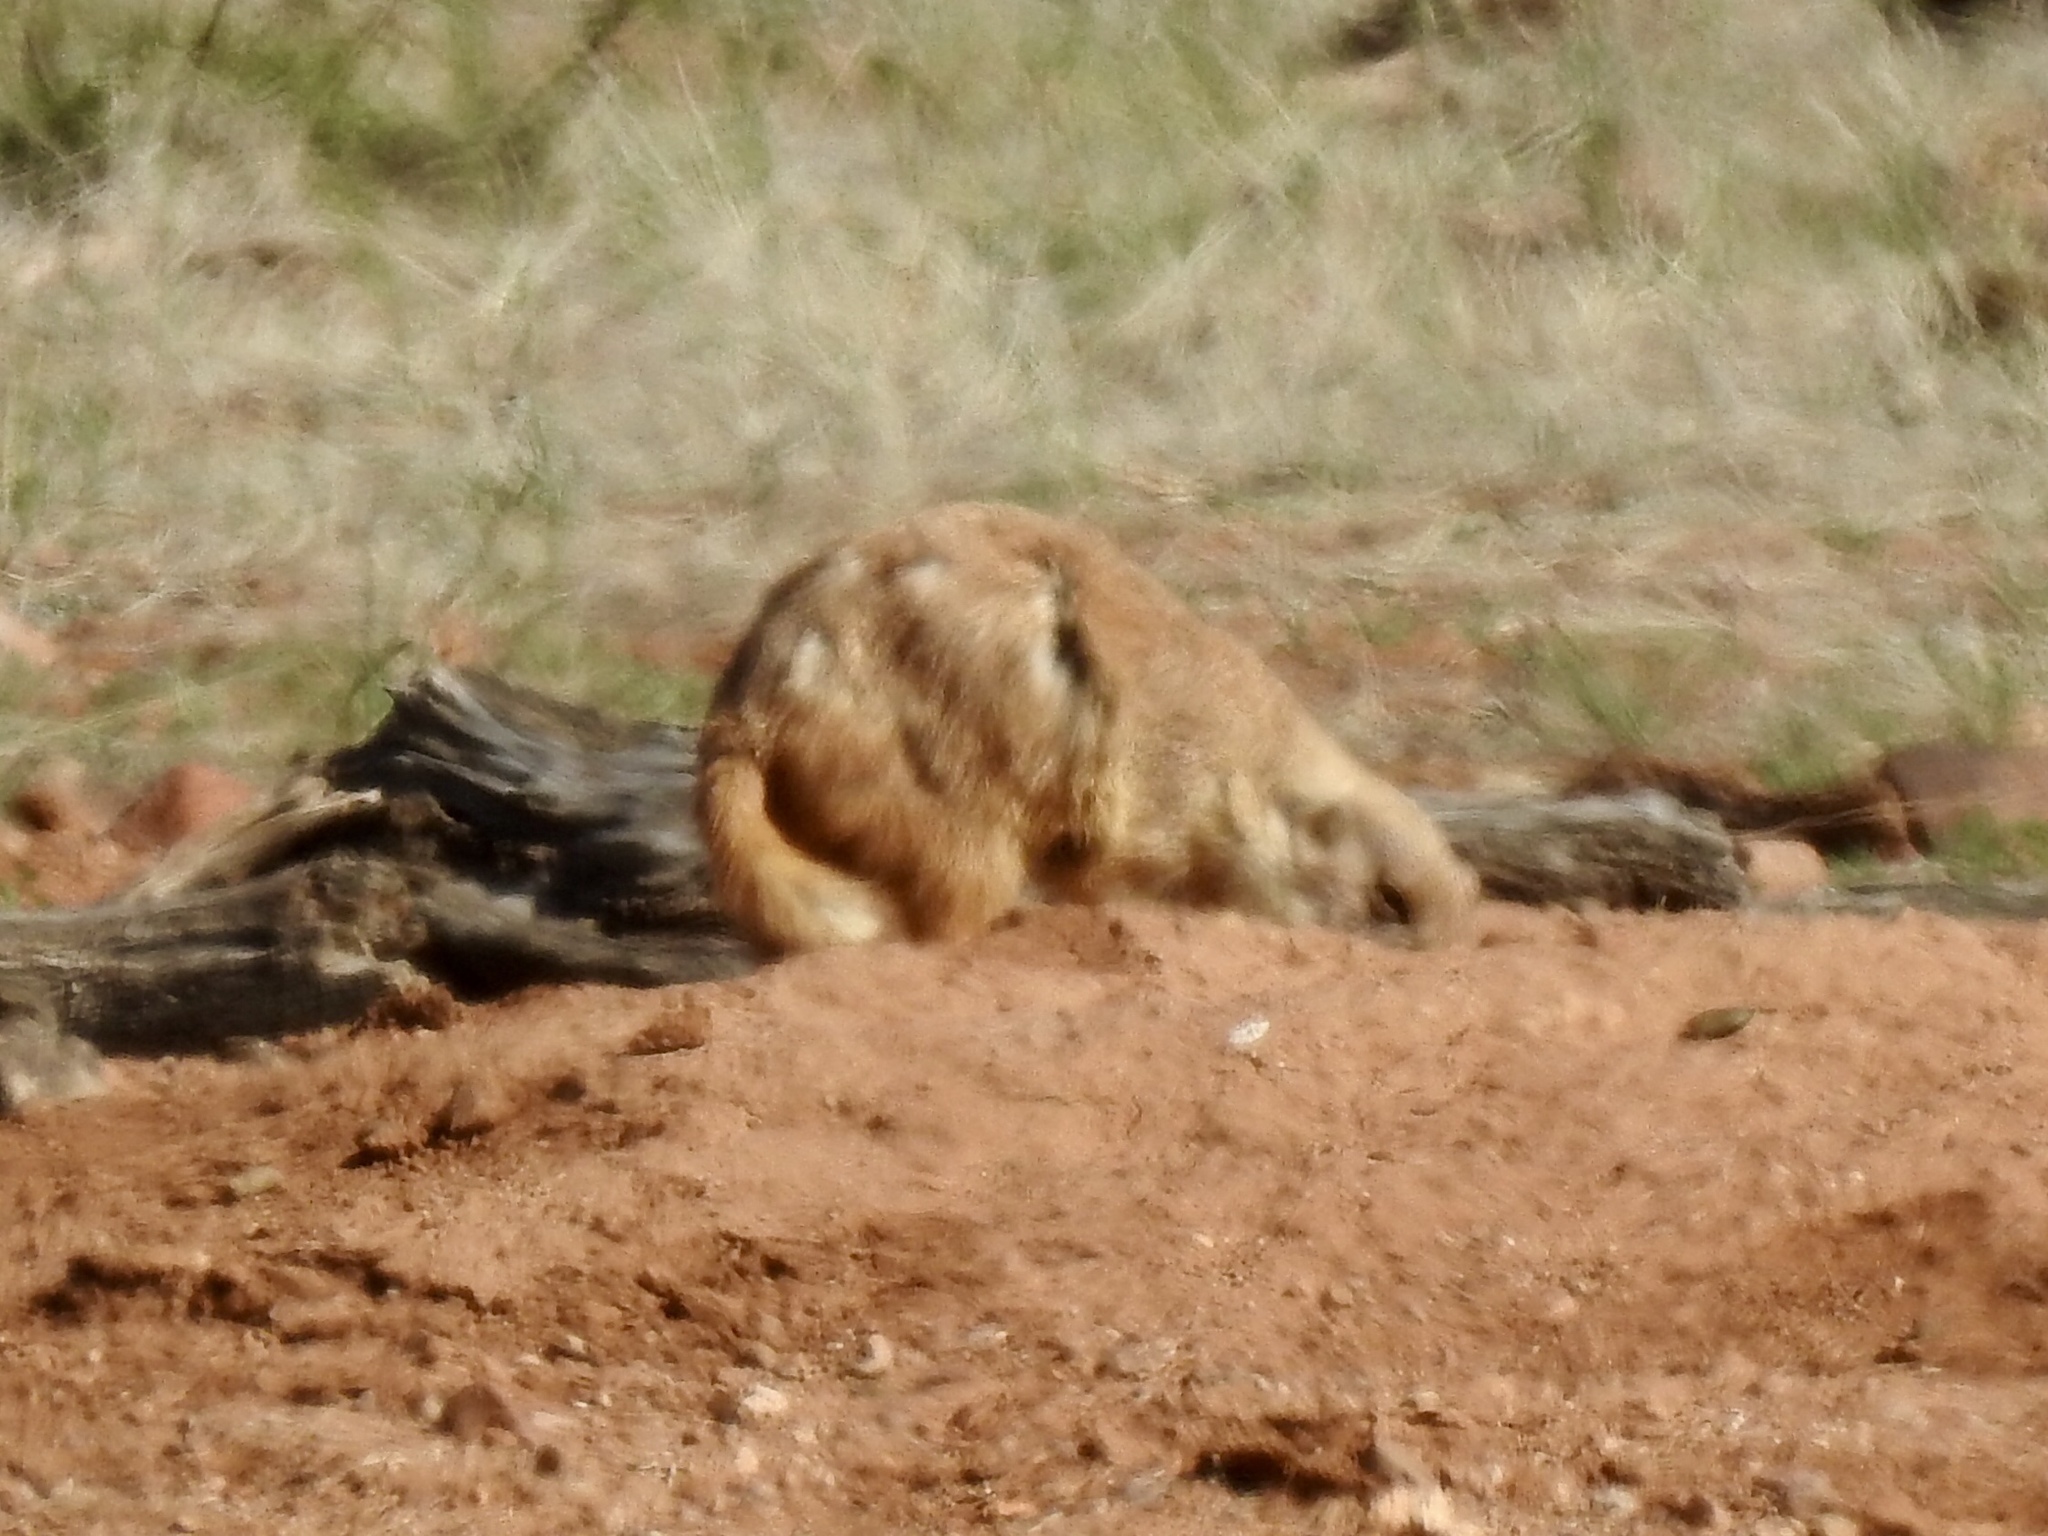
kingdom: Animalia
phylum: Chordata
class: Mammalia
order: Rodentia
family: Sciuridae
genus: Cynomys
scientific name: Cynomys ludovicianus
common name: Black-tailed prairie dog
